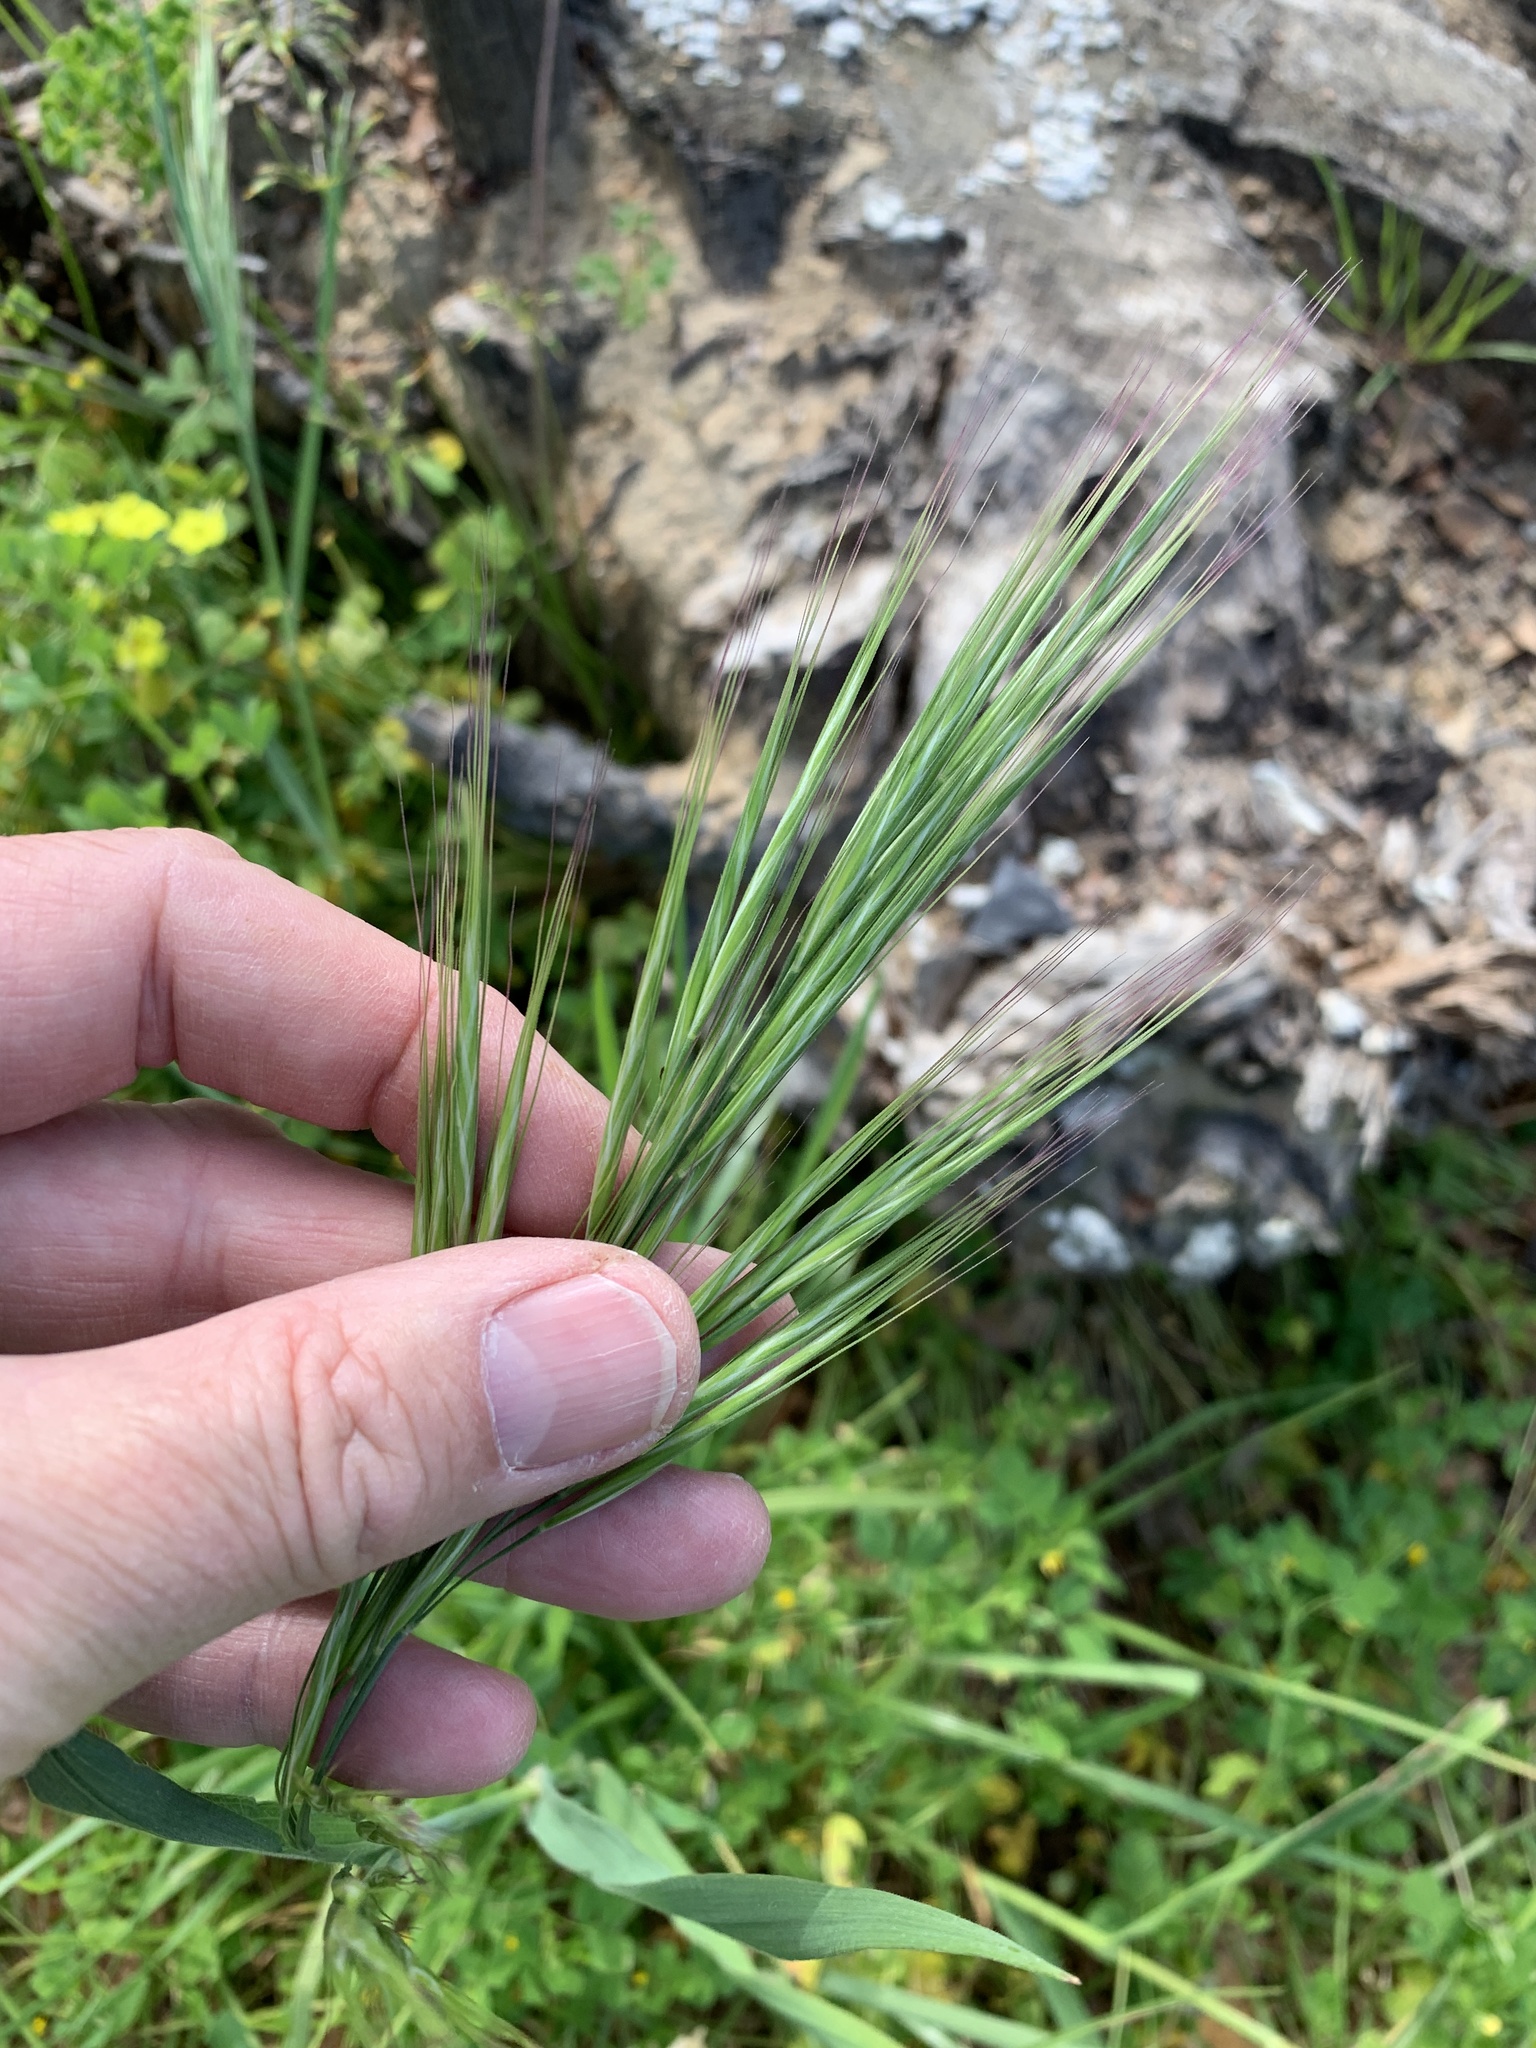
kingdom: Plantae
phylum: Tracheophyta
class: Liliopsida
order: Poales
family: Poaceae
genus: Bromus
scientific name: Bromus diandrus
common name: Ripgut brome
